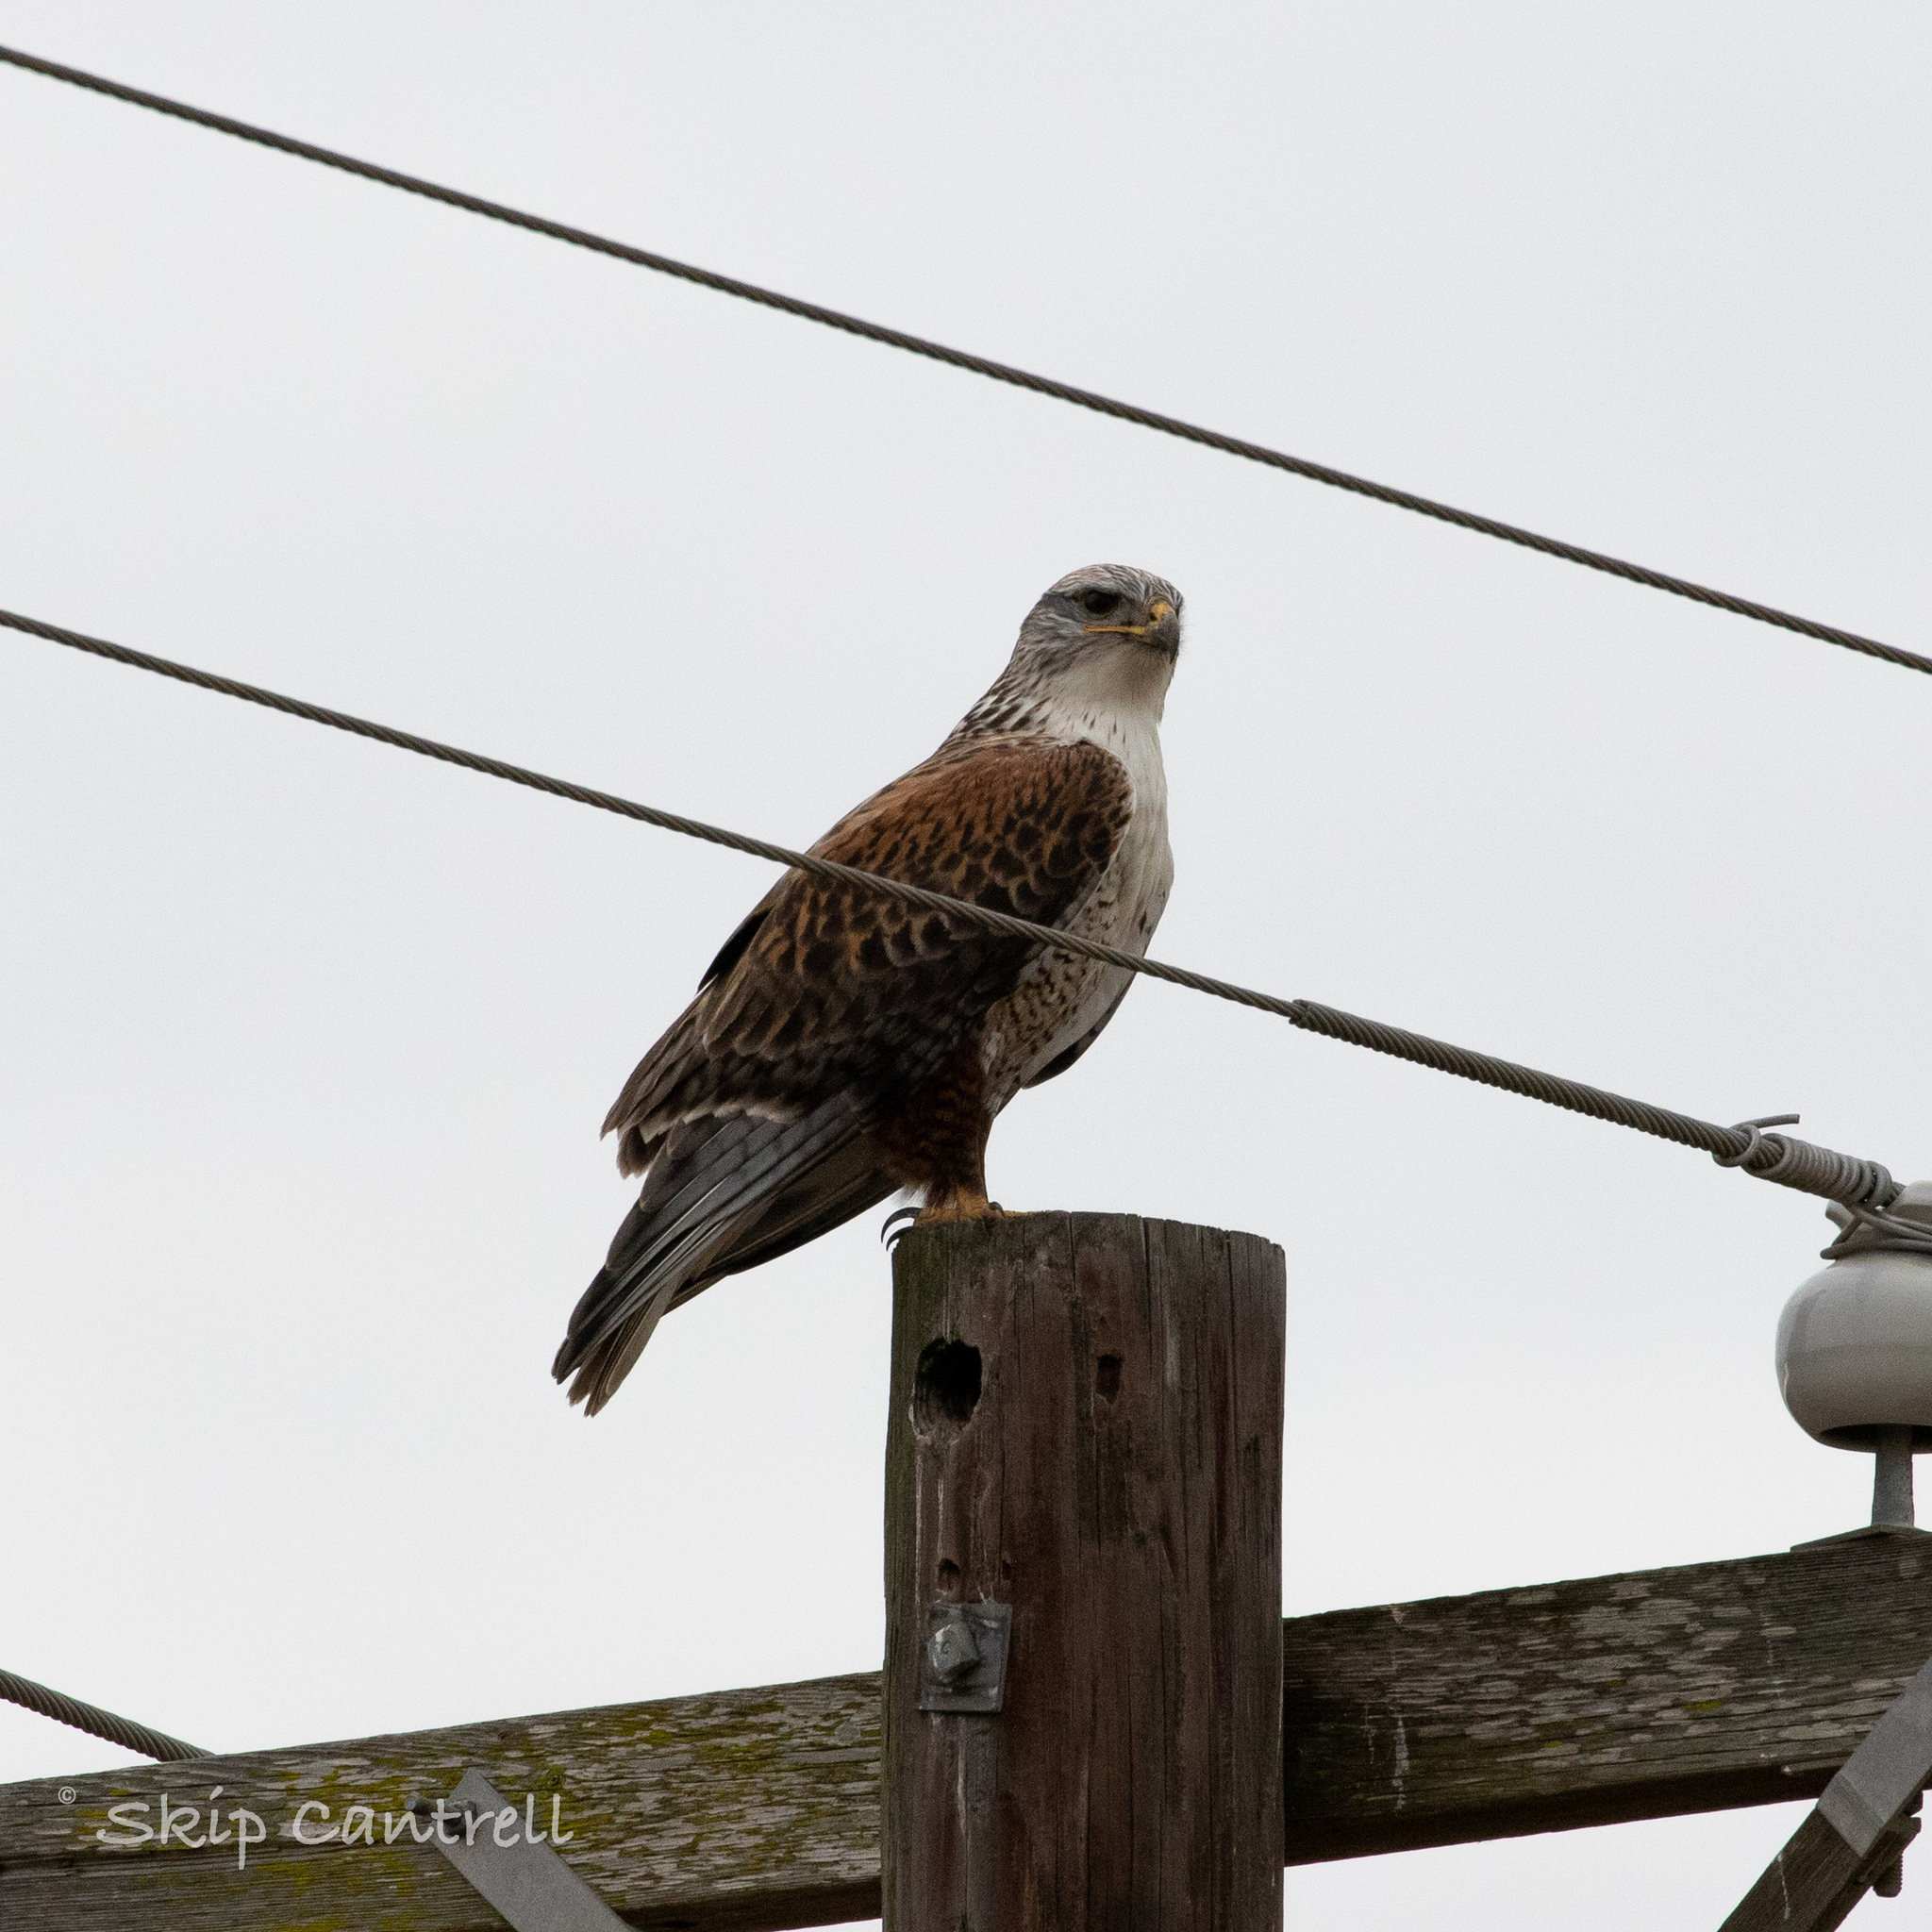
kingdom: Animalia
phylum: Chordata
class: Aves
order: Accipitriformes
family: Accipitridae
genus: Buteo
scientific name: Buteo regalis
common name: Ferruginous hawk
